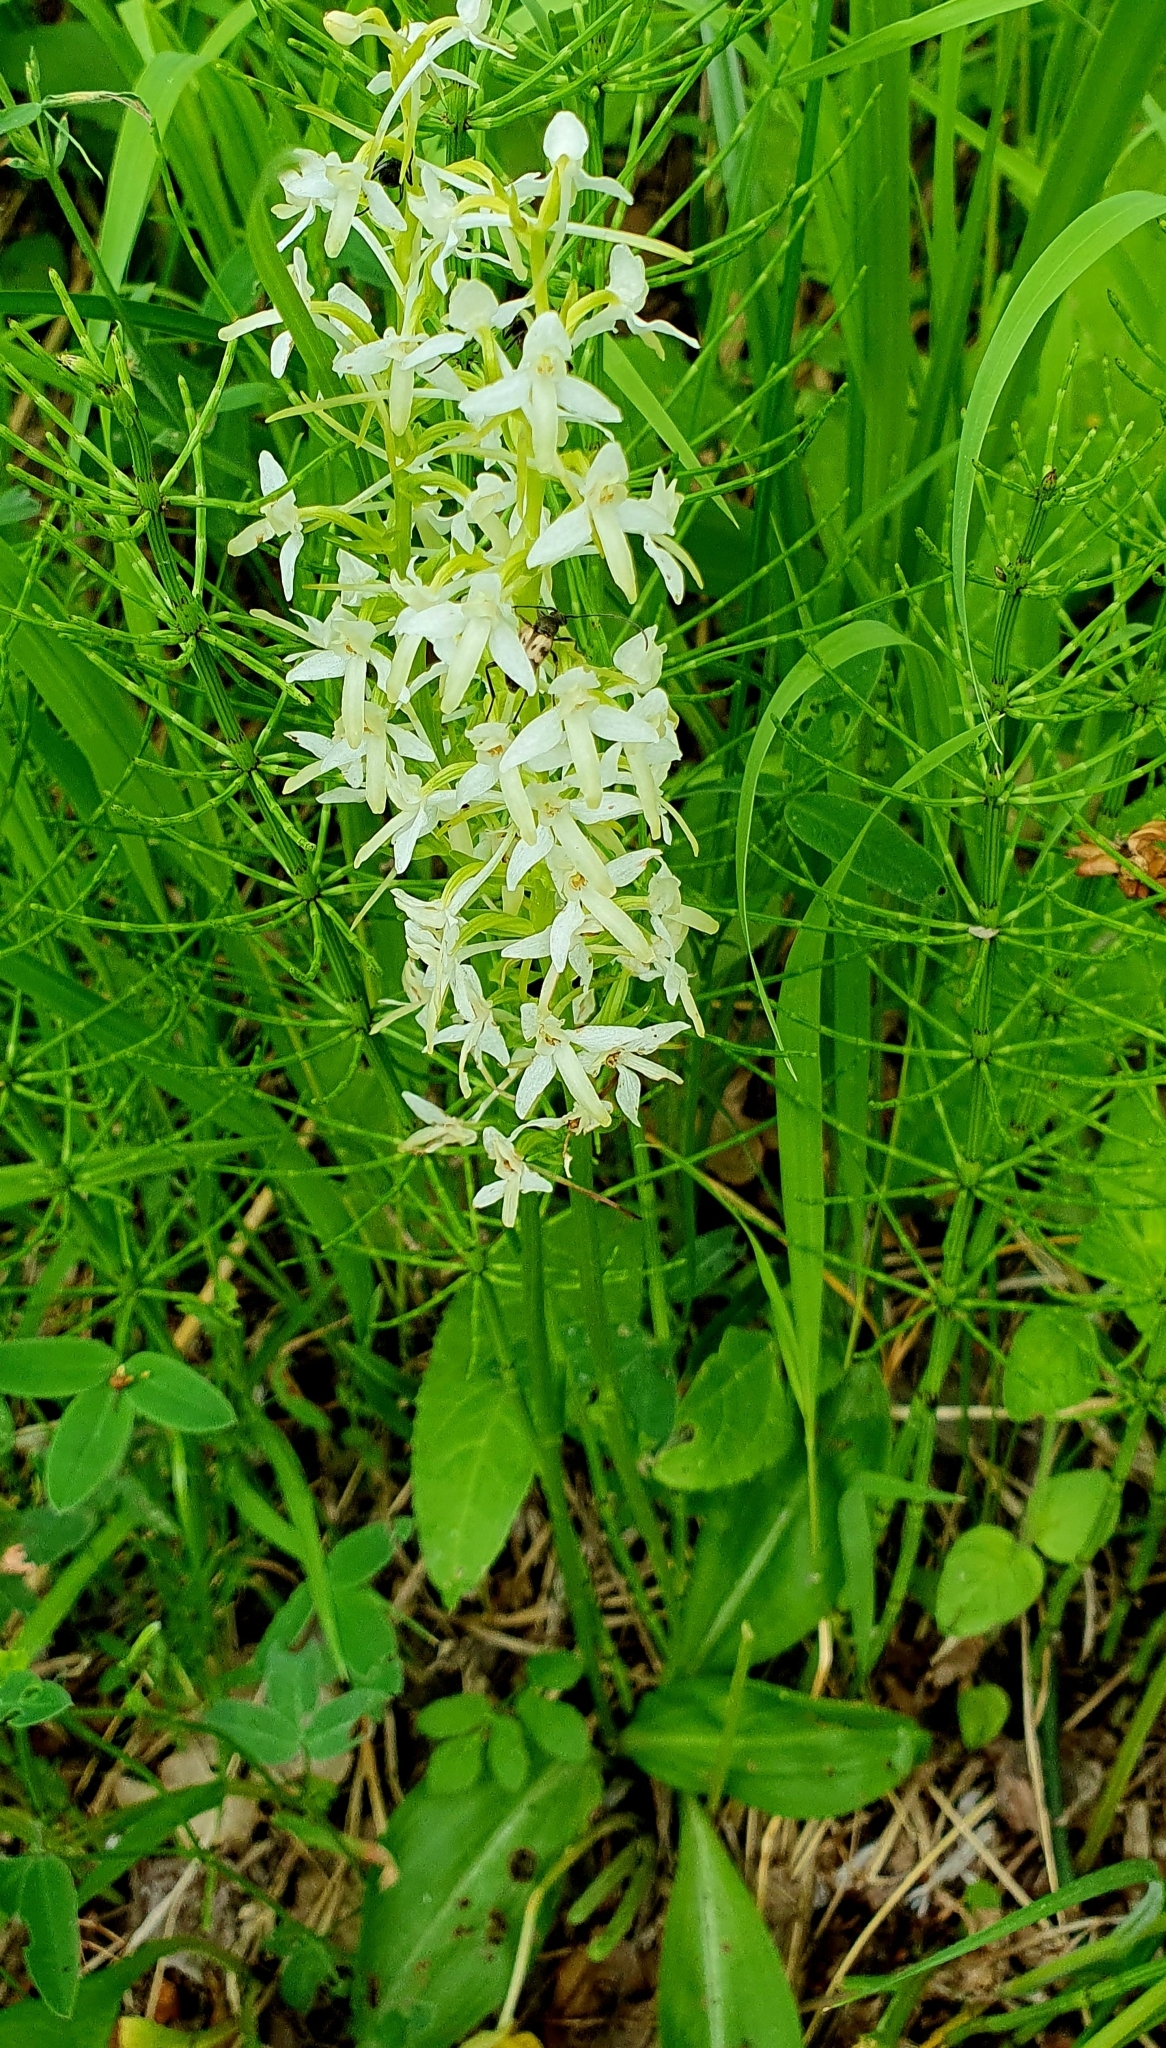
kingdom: Plantae
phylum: Tracheophyta
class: Liliopsida
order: Asparagales
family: Orchidaceae
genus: Platanthera
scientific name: Platanthera bifolia
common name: Lesser butterfly-orchid
